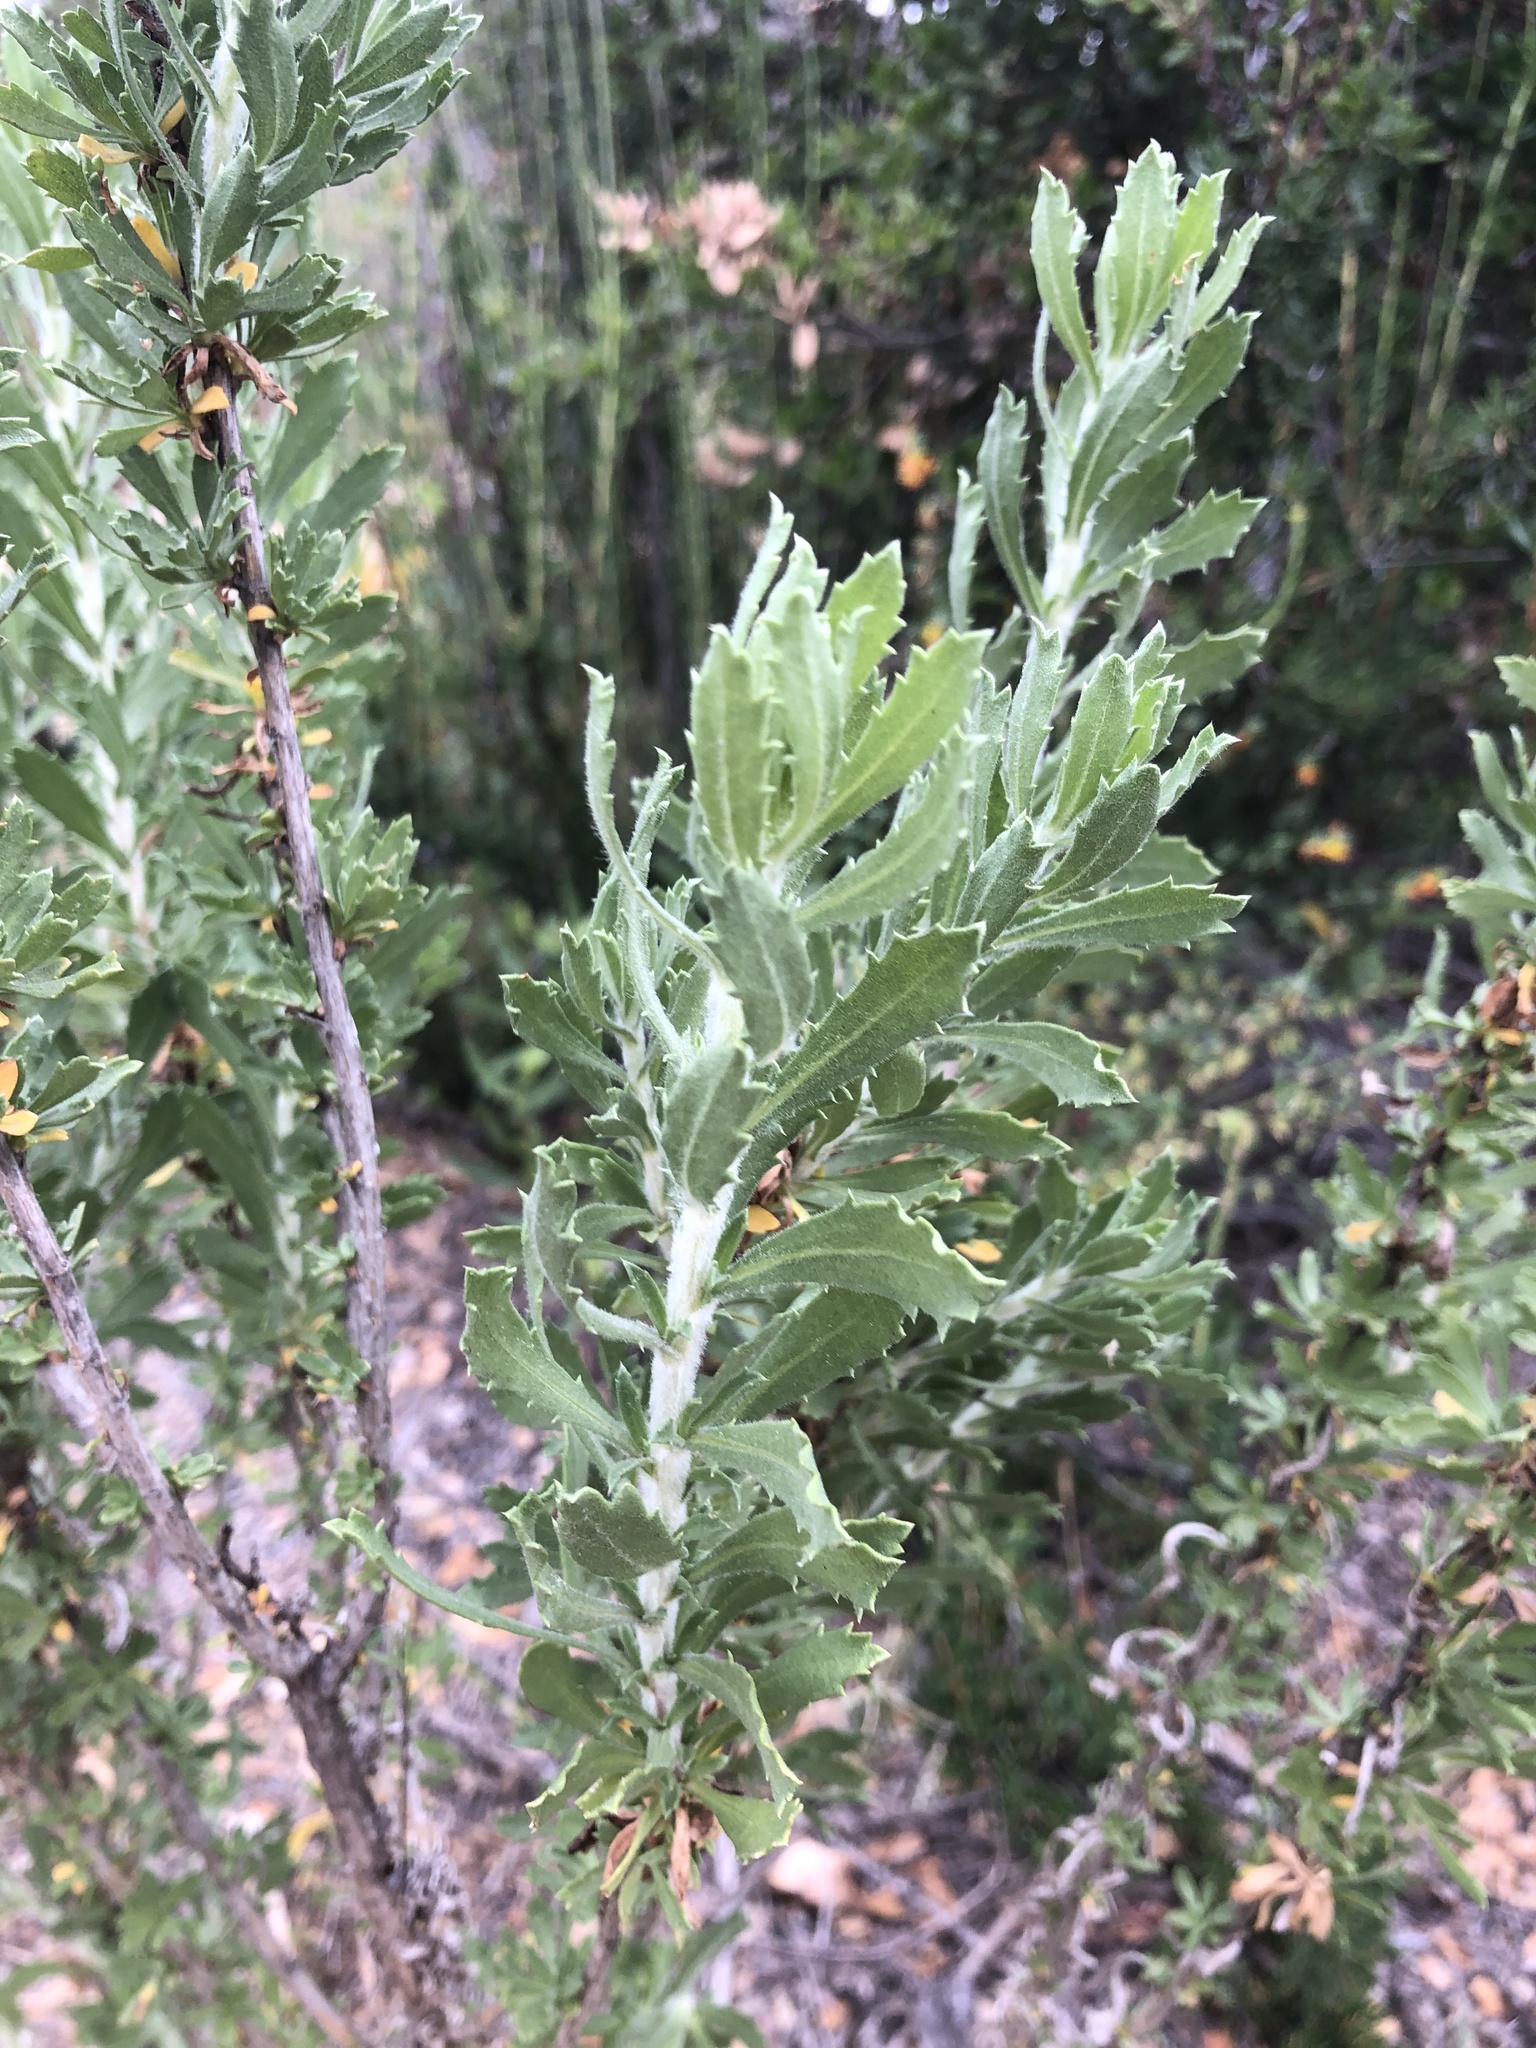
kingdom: Plantae
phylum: Tracheophyta
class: Magnoliopsida
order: Asterales
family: Asteraceae
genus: Isocoma
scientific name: Isocoma menziesii
